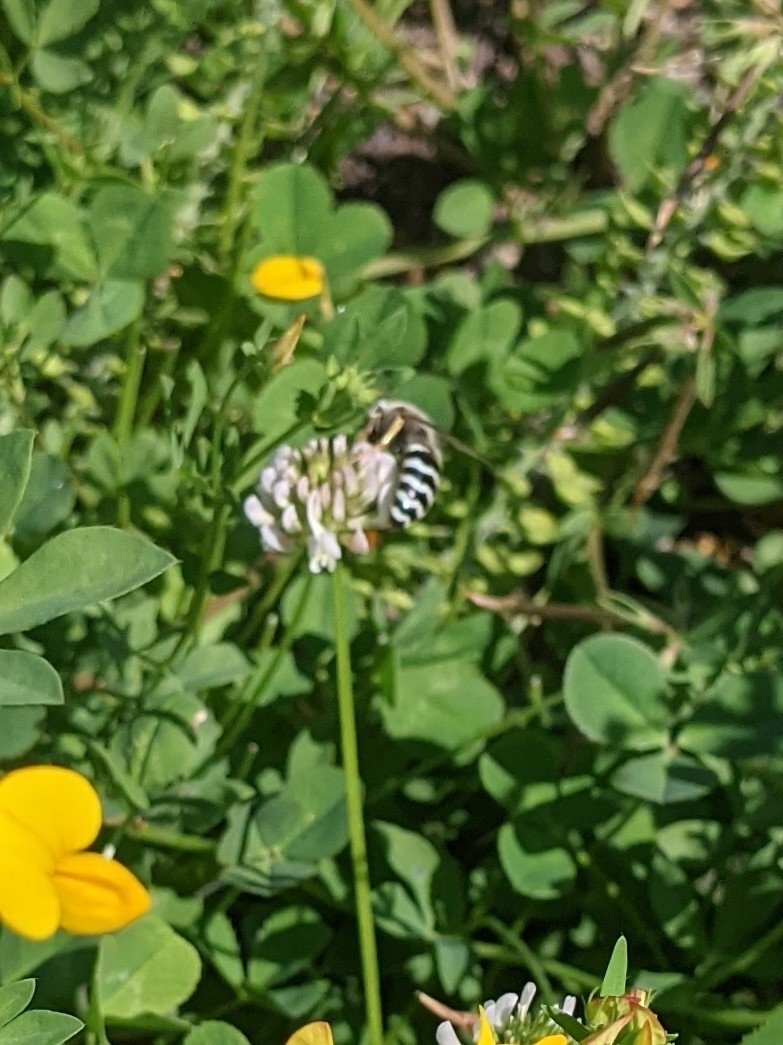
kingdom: Animalia
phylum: Arthropoda
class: Insecta
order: Hymenoptera
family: Crabronidae
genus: Bembix
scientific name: Bembix americana
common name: American sand wasp
